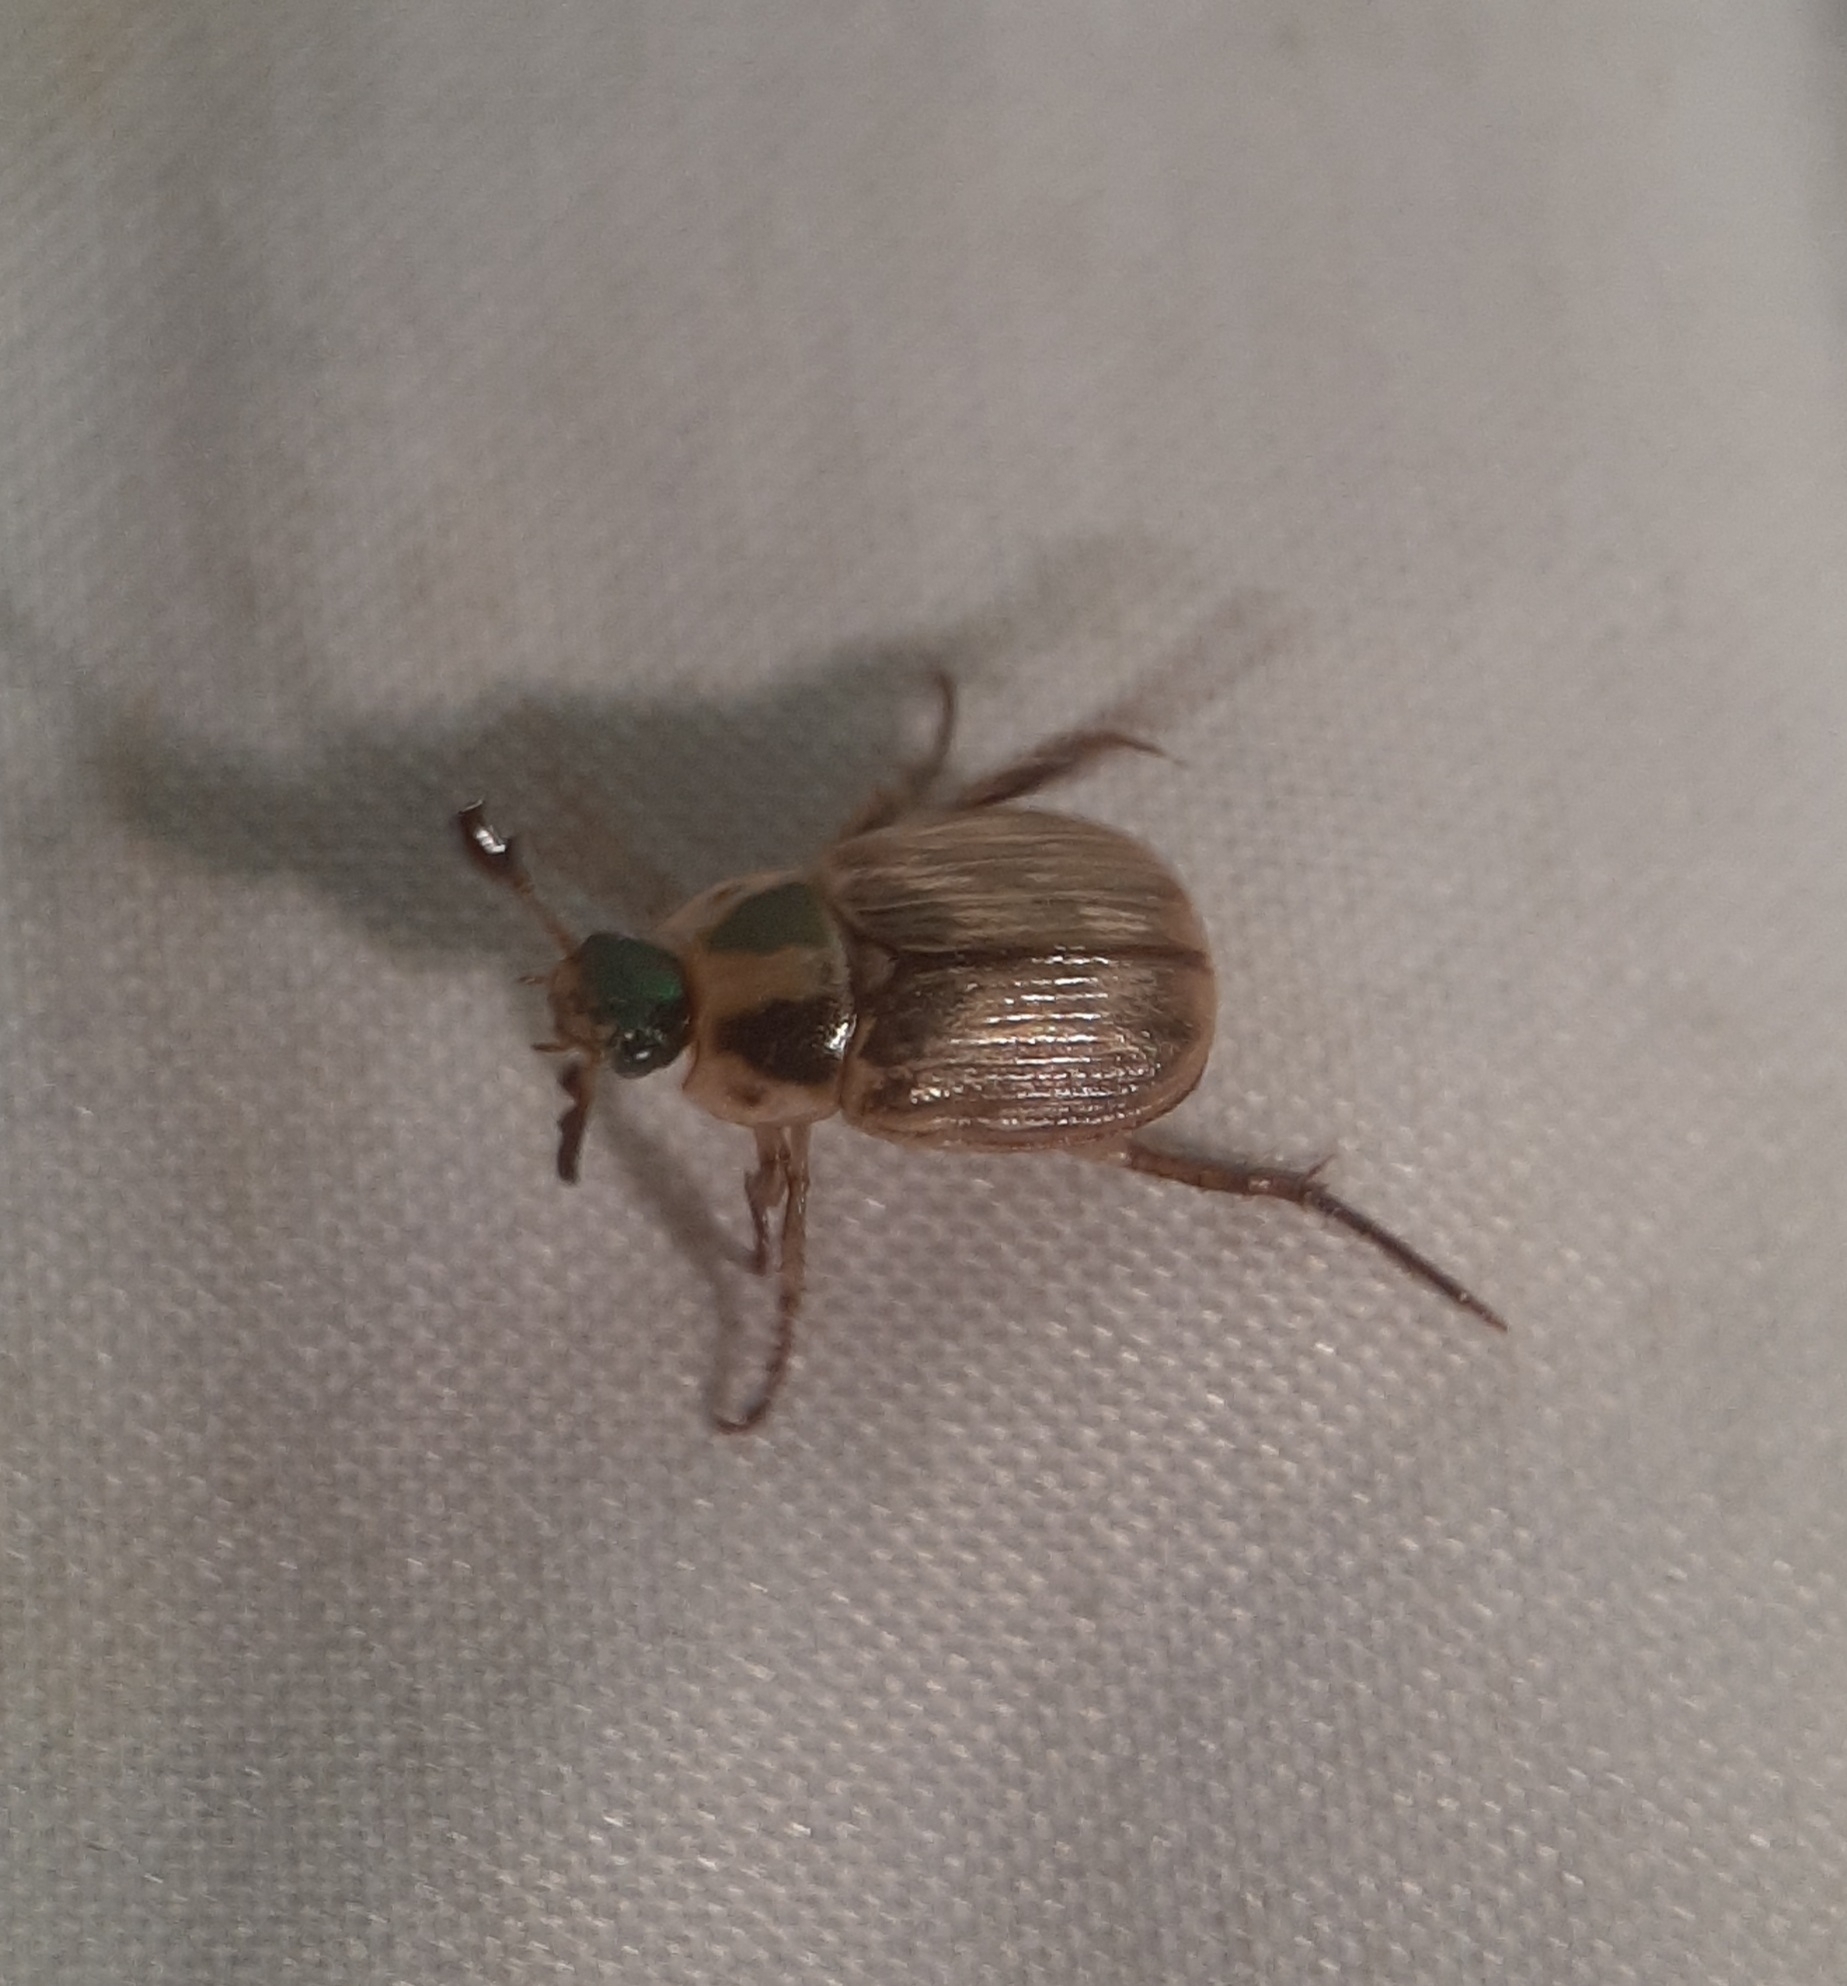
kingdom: Animalia
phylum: Arthropoda
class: Insecta
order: Coleoptera
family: Scarabaeidae
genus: Exomala
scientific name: Exomala orientalis
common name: Oriental beetle
